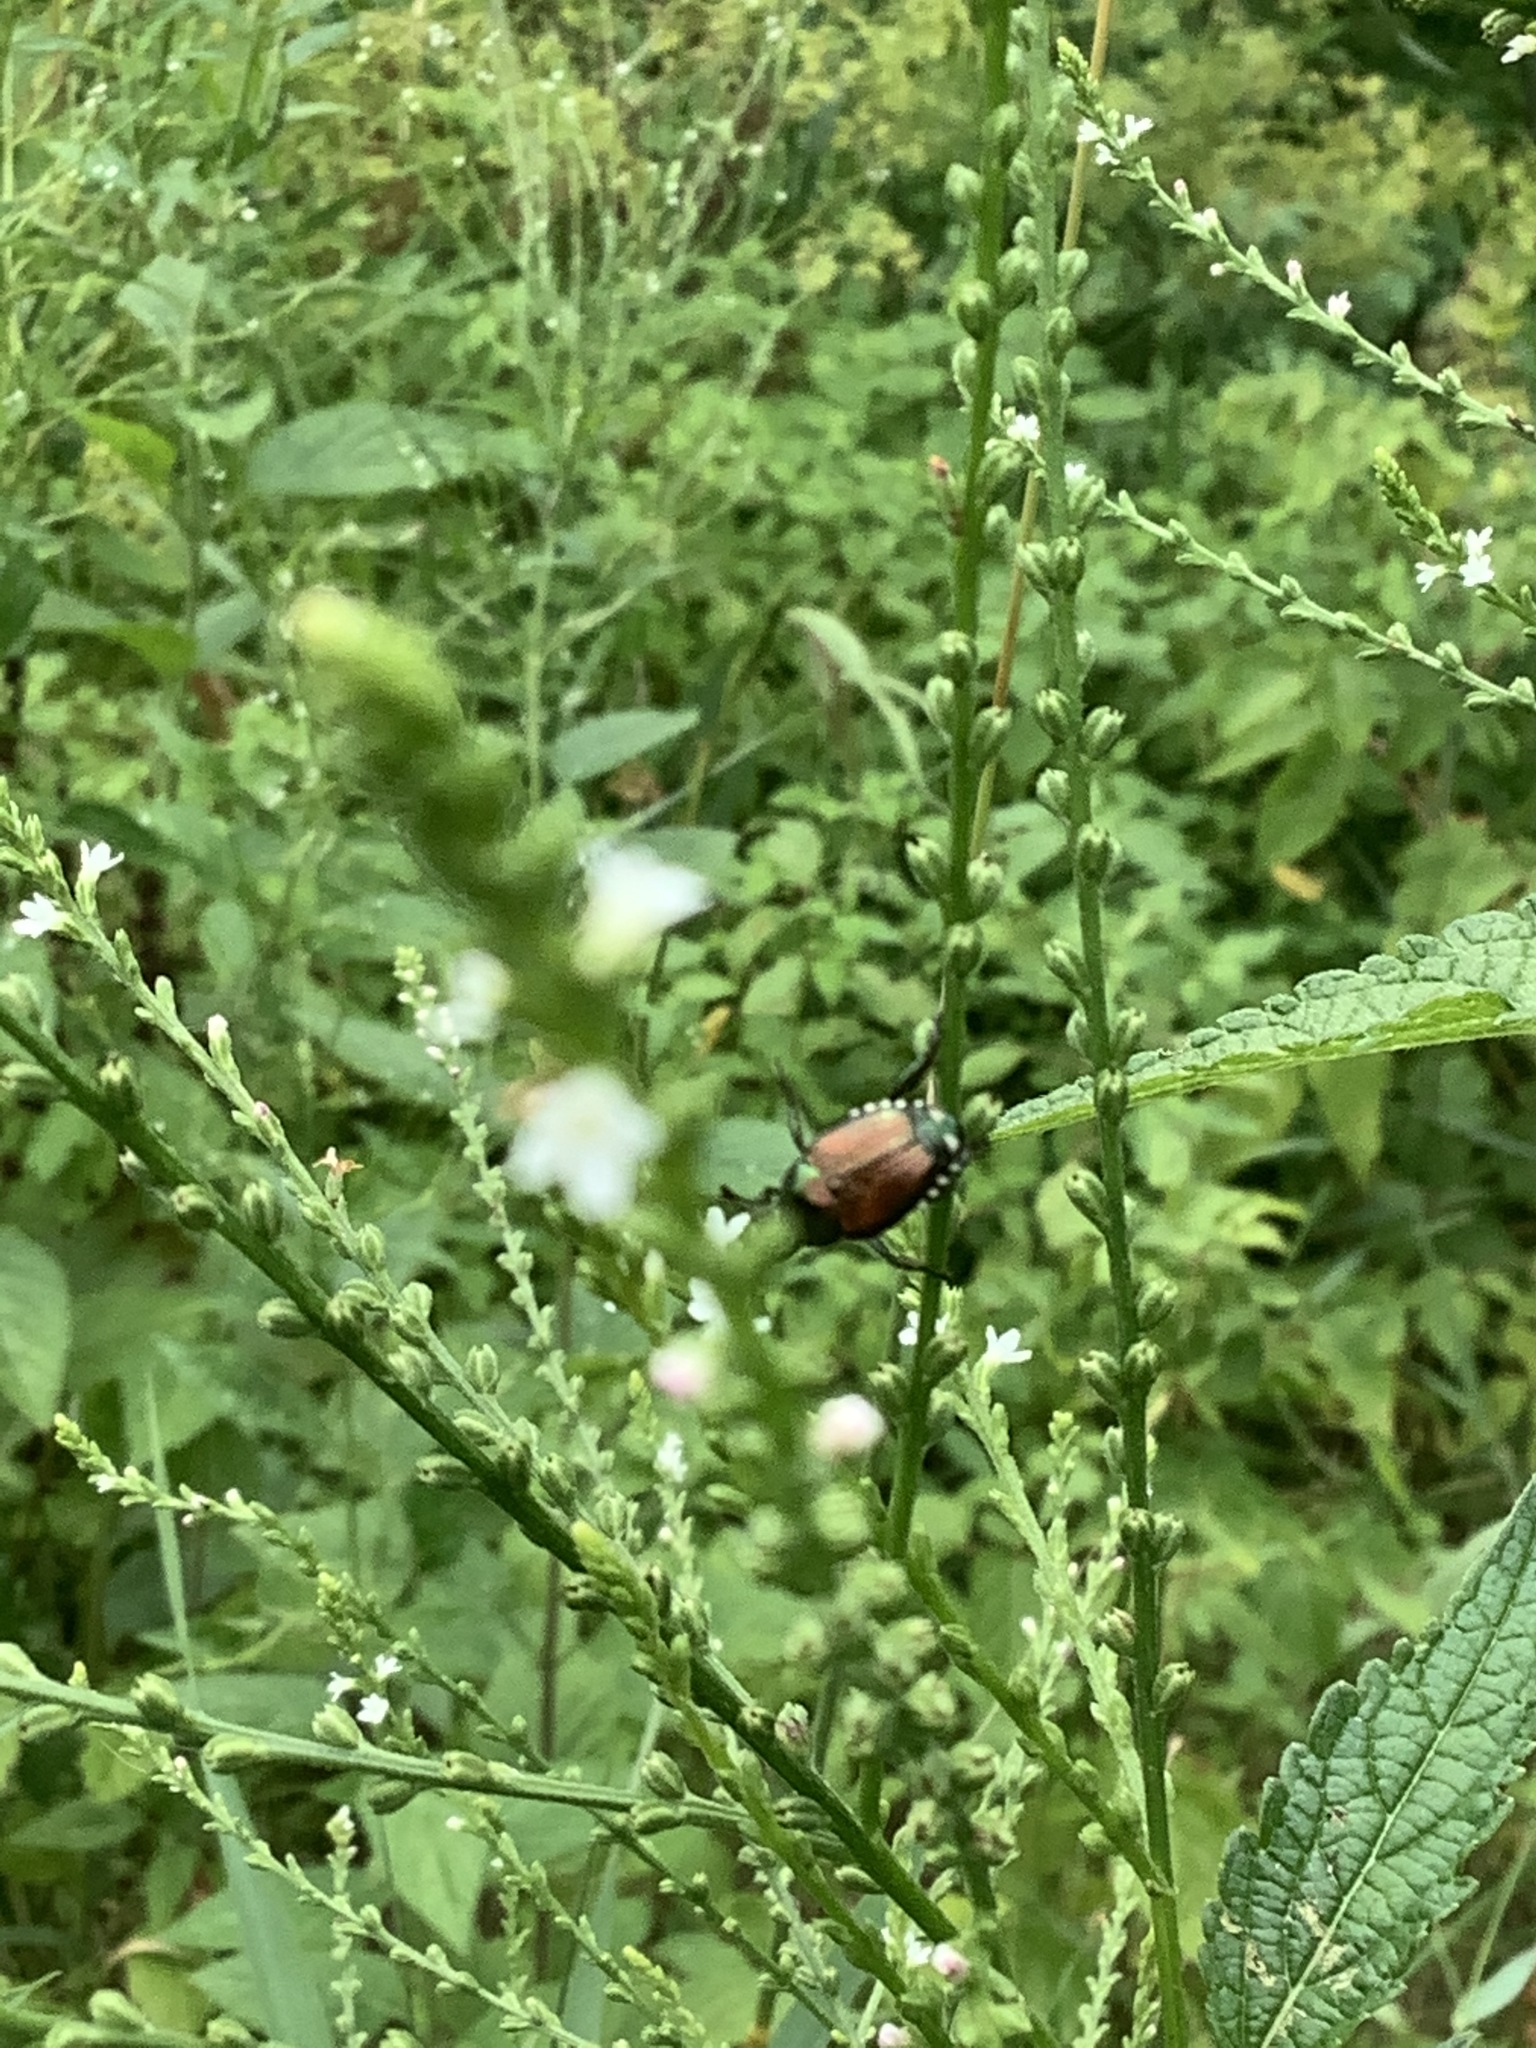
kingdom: Animalia
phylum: Arthropoda
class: Insecta
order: Coleoptera
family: Scarabaeidae
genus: Popillia
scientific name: Popillia japonica
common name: Japanese beetle
